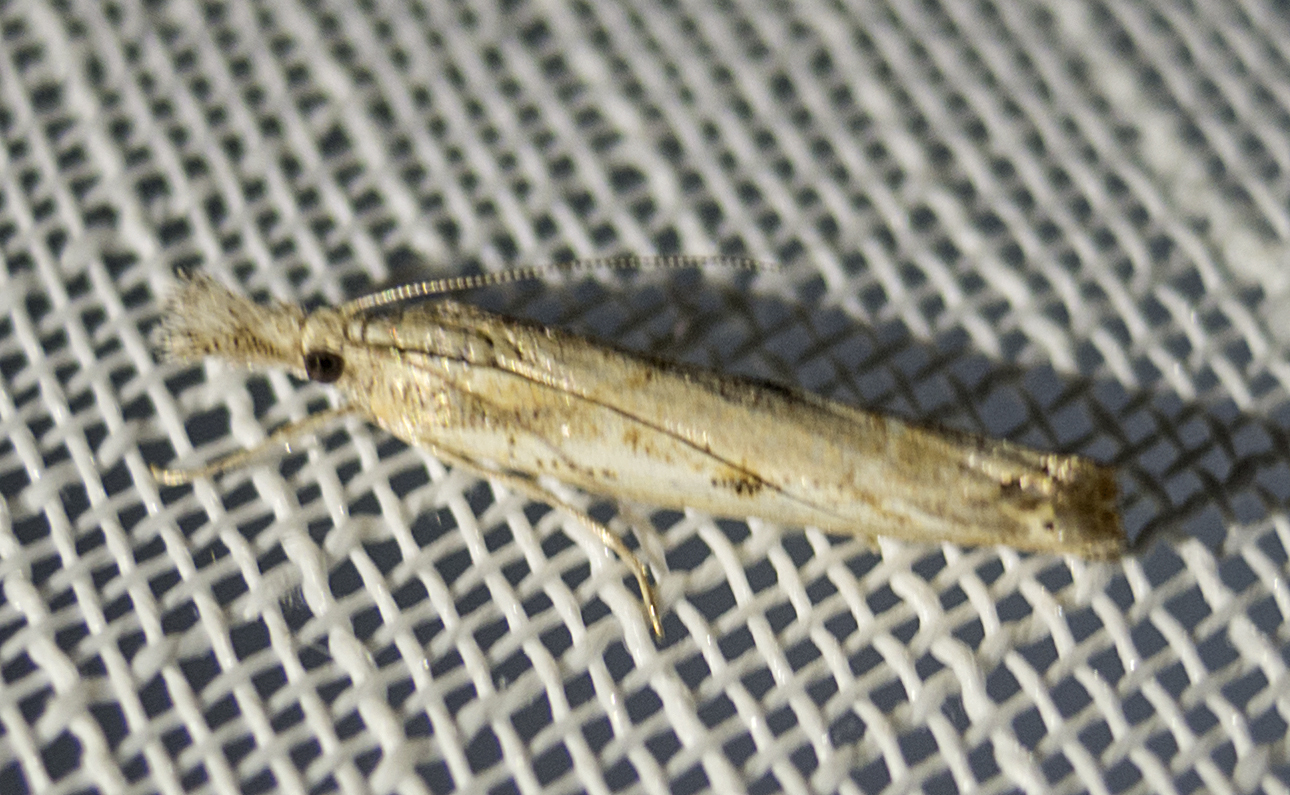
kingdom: Animalia
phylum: Arthropoda
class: Insecta
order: Lepidoptera
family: Crambidae
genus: Agriphila
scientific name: Agriphila tolli
